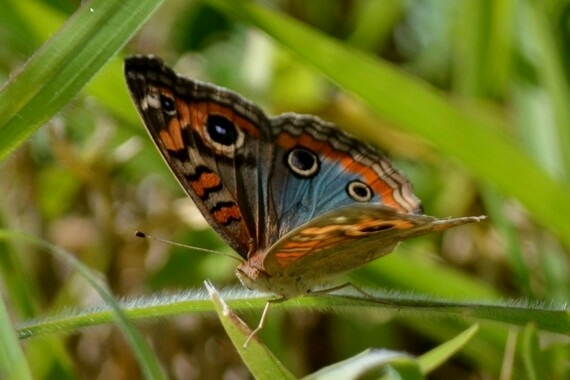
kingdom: Animalia
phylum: Arthropoda
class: Insecta
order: Lepidoptera
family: Nymphalidae
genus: Junonia
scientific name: Junonia evarete
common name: Black mangrove buckeye
